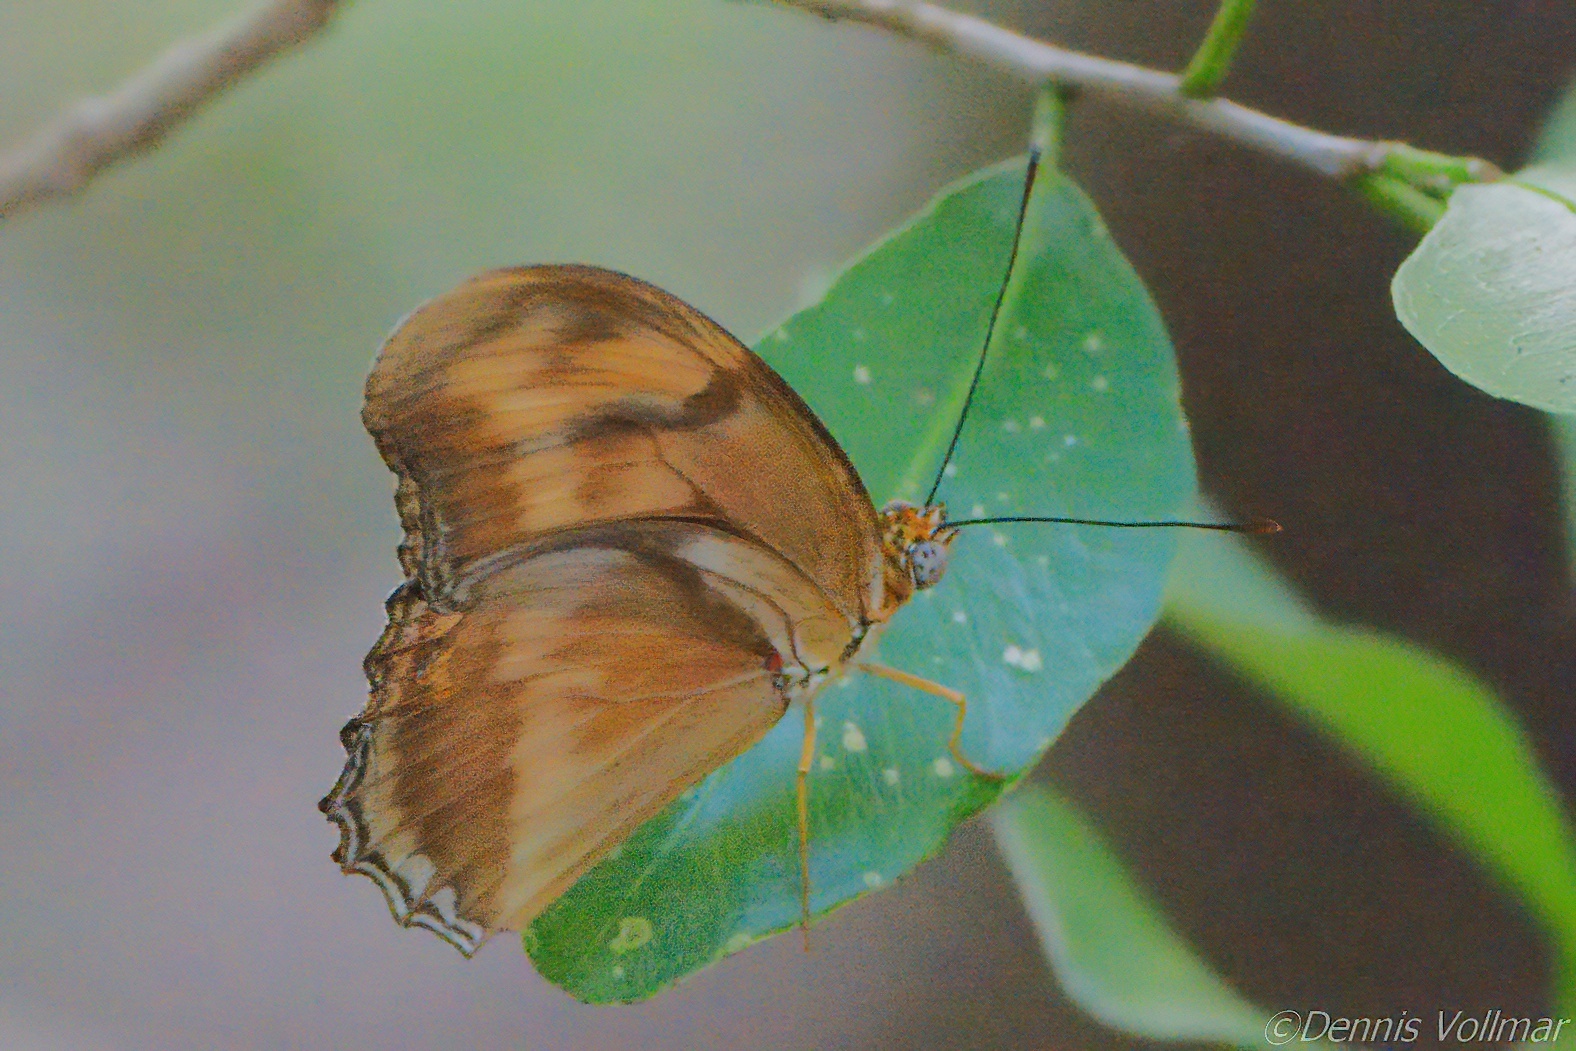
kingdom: Animalia
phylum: Arthropoda
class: Insecta
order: Lepidoptera
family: Nymphalidae
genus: Dryas
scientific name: Dryas iulia
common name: Flambeau
